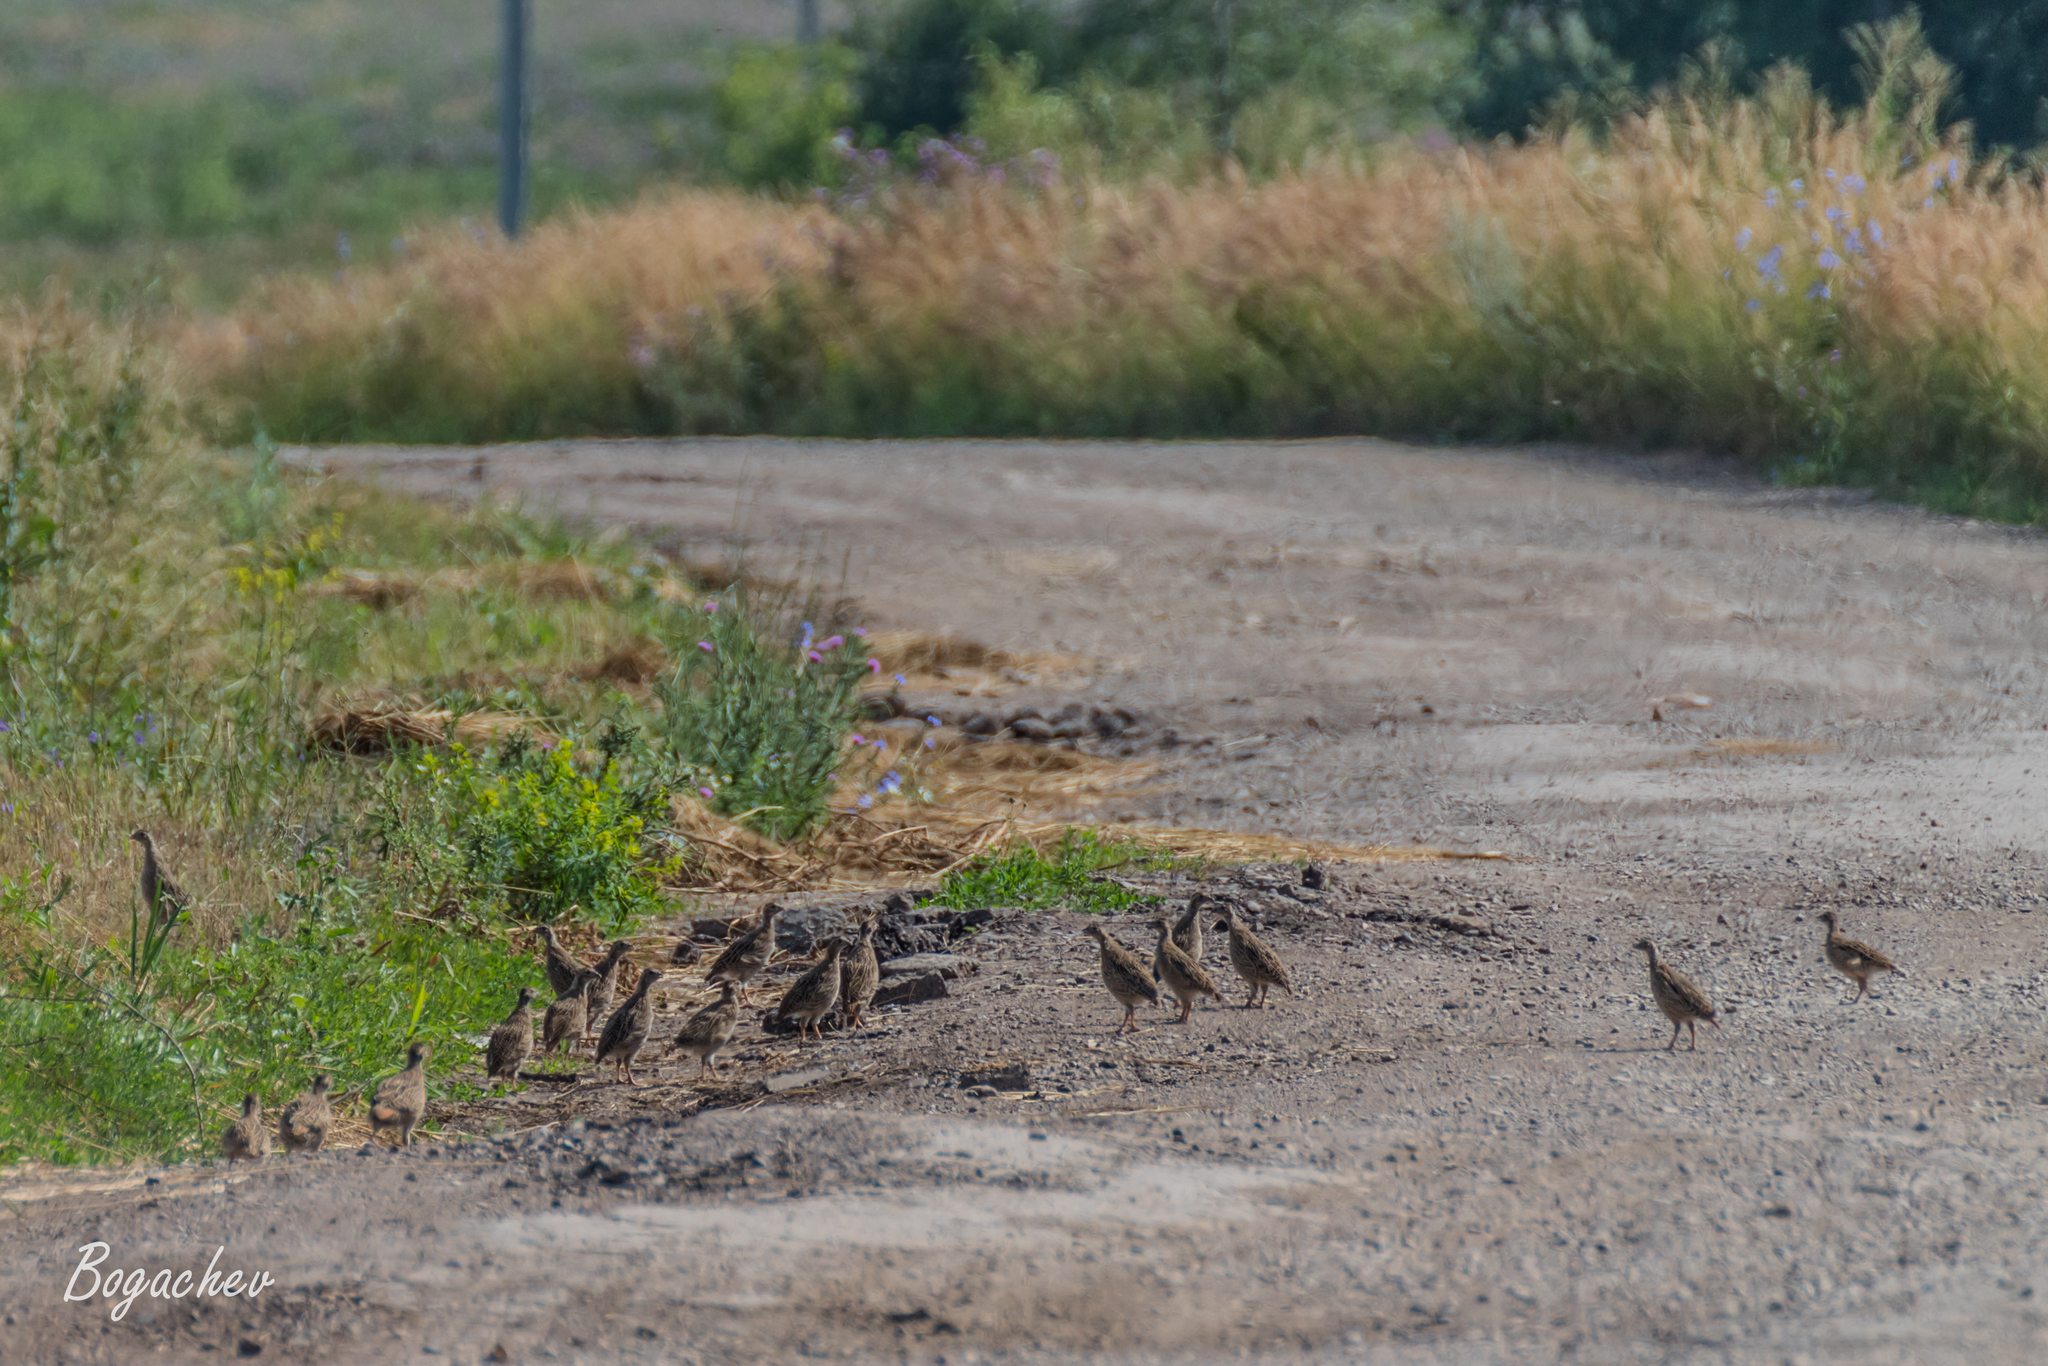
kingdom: Animalia
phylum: Chordata
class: Aves
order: Galliformes
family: Phasianidae
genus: Perdix
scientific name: Perdix perdix
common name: Grey partridge
